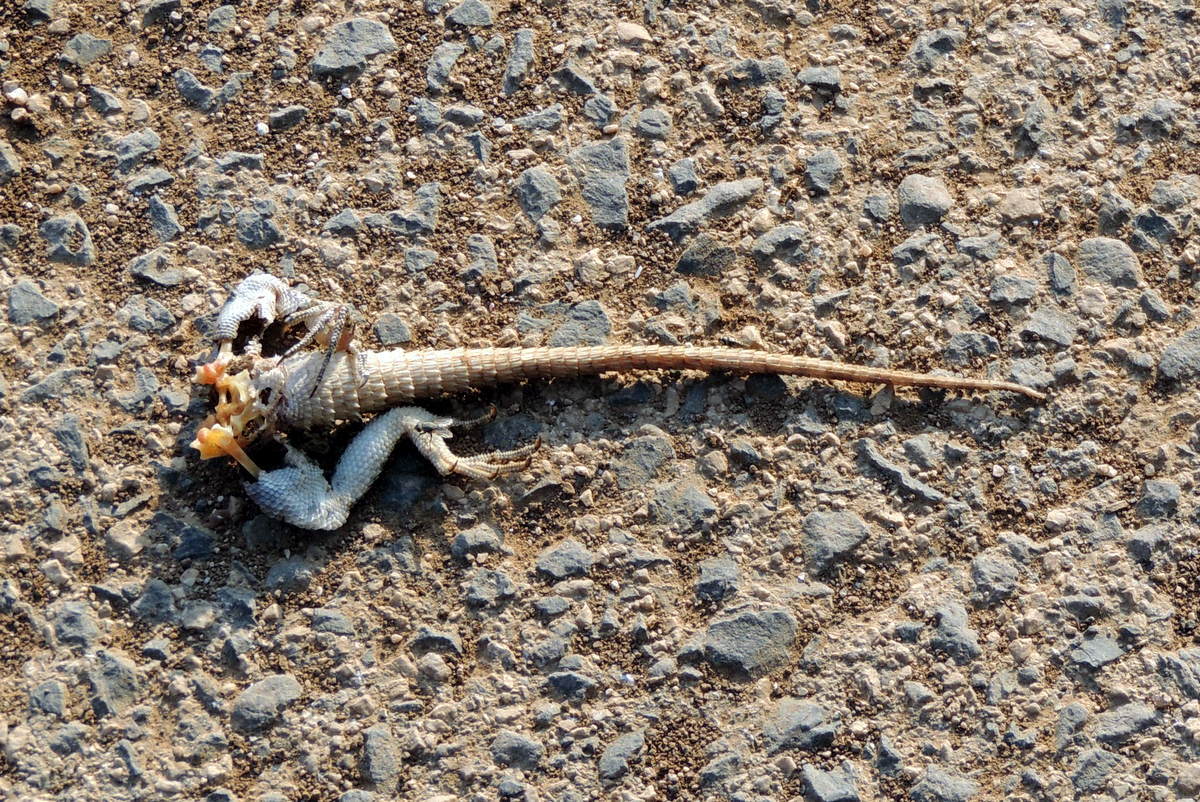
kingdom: Animalia
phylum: Chordata
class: Squamata
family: Agamidae
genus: Laudakia
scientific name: Laudakia vulgaris
